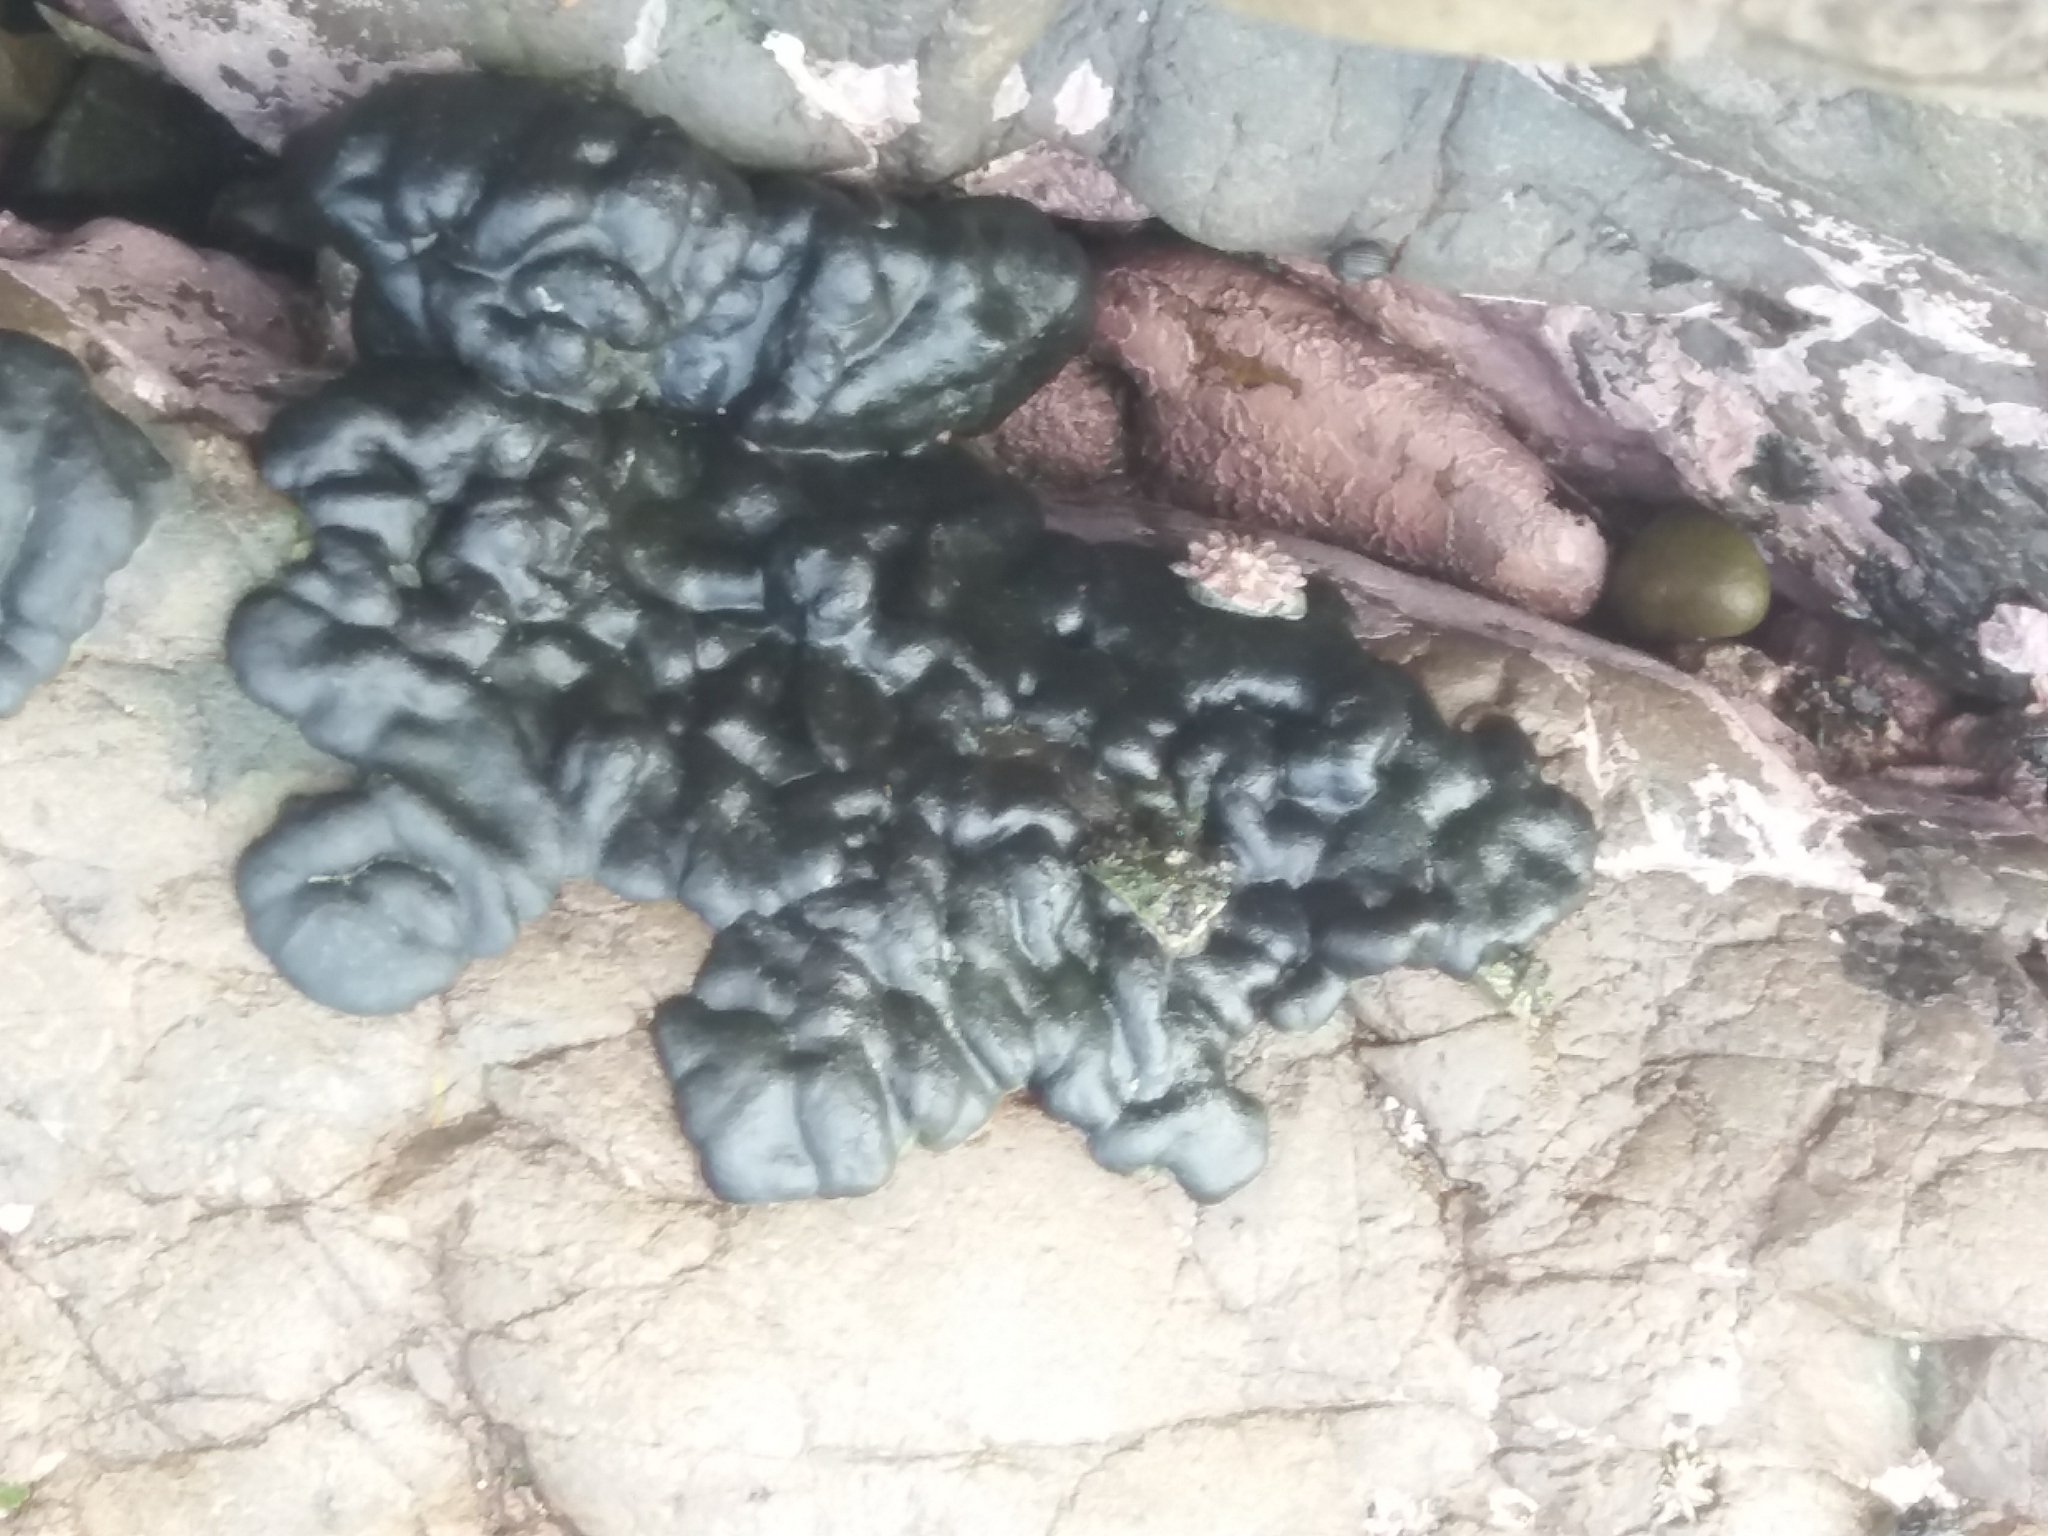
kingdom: Plantae
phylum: Chlorophyta
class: Ulvophyceae
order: Bryopsidales
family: Codiaceae
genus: Codium
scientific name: Codium convolutum
